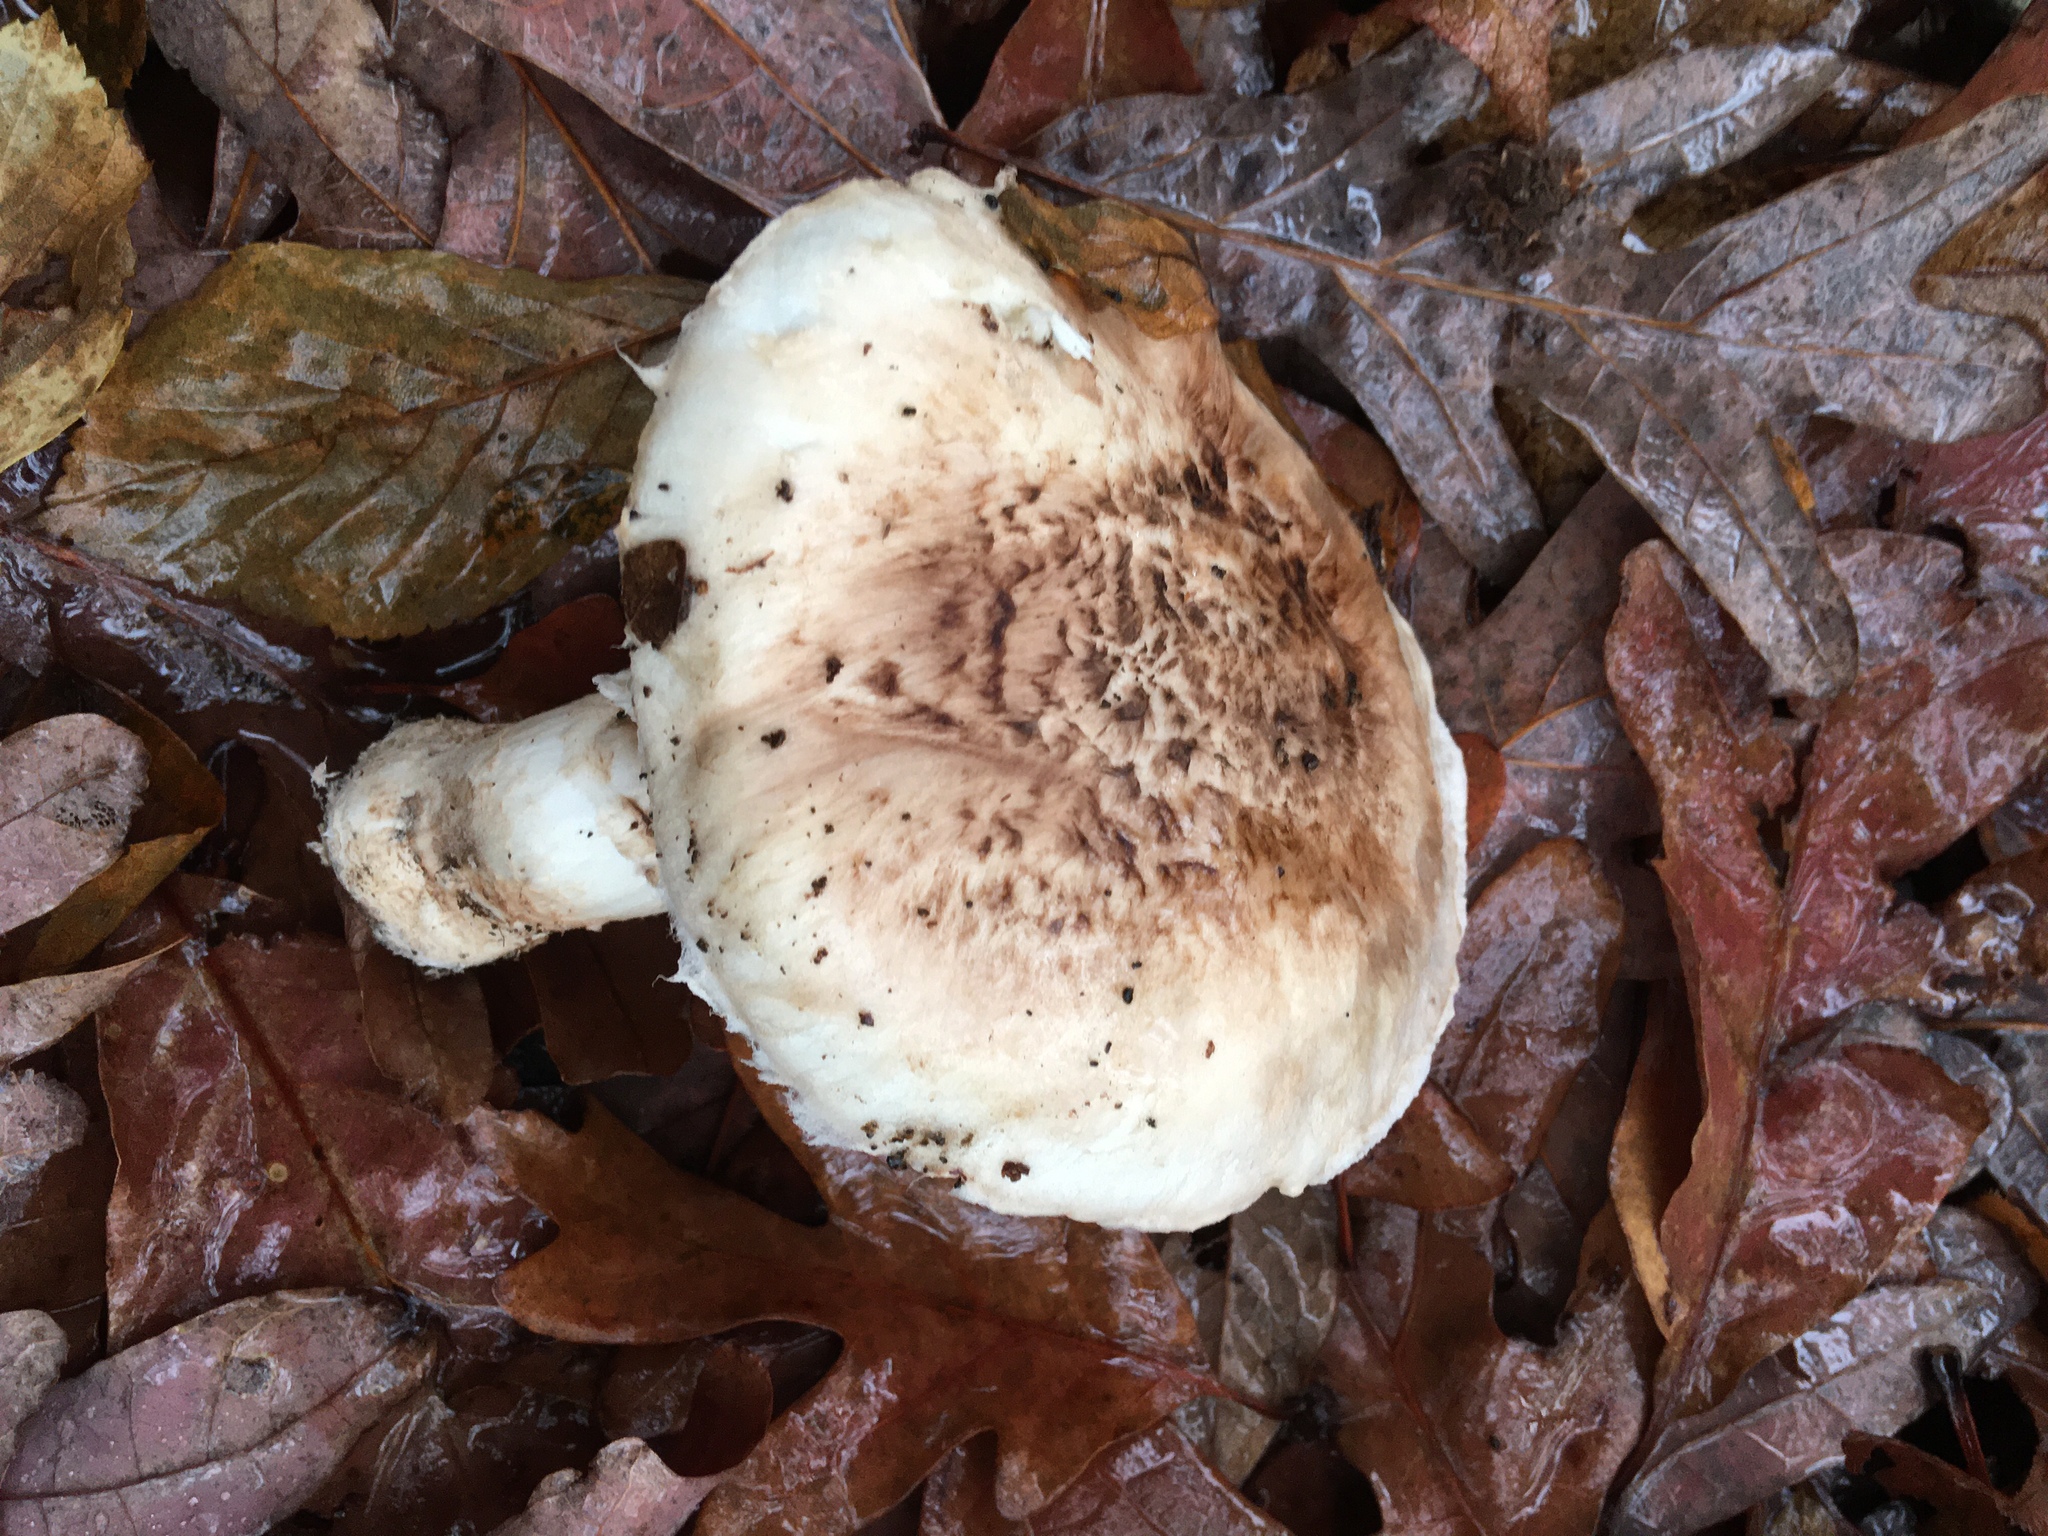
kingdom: Fungi
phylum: Basidiomycota
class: Agaricomycetes
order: Agaricales
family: Tricholomataceae
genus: Tricholoma
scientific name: Tricholoma caligatum
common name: True booted knight
